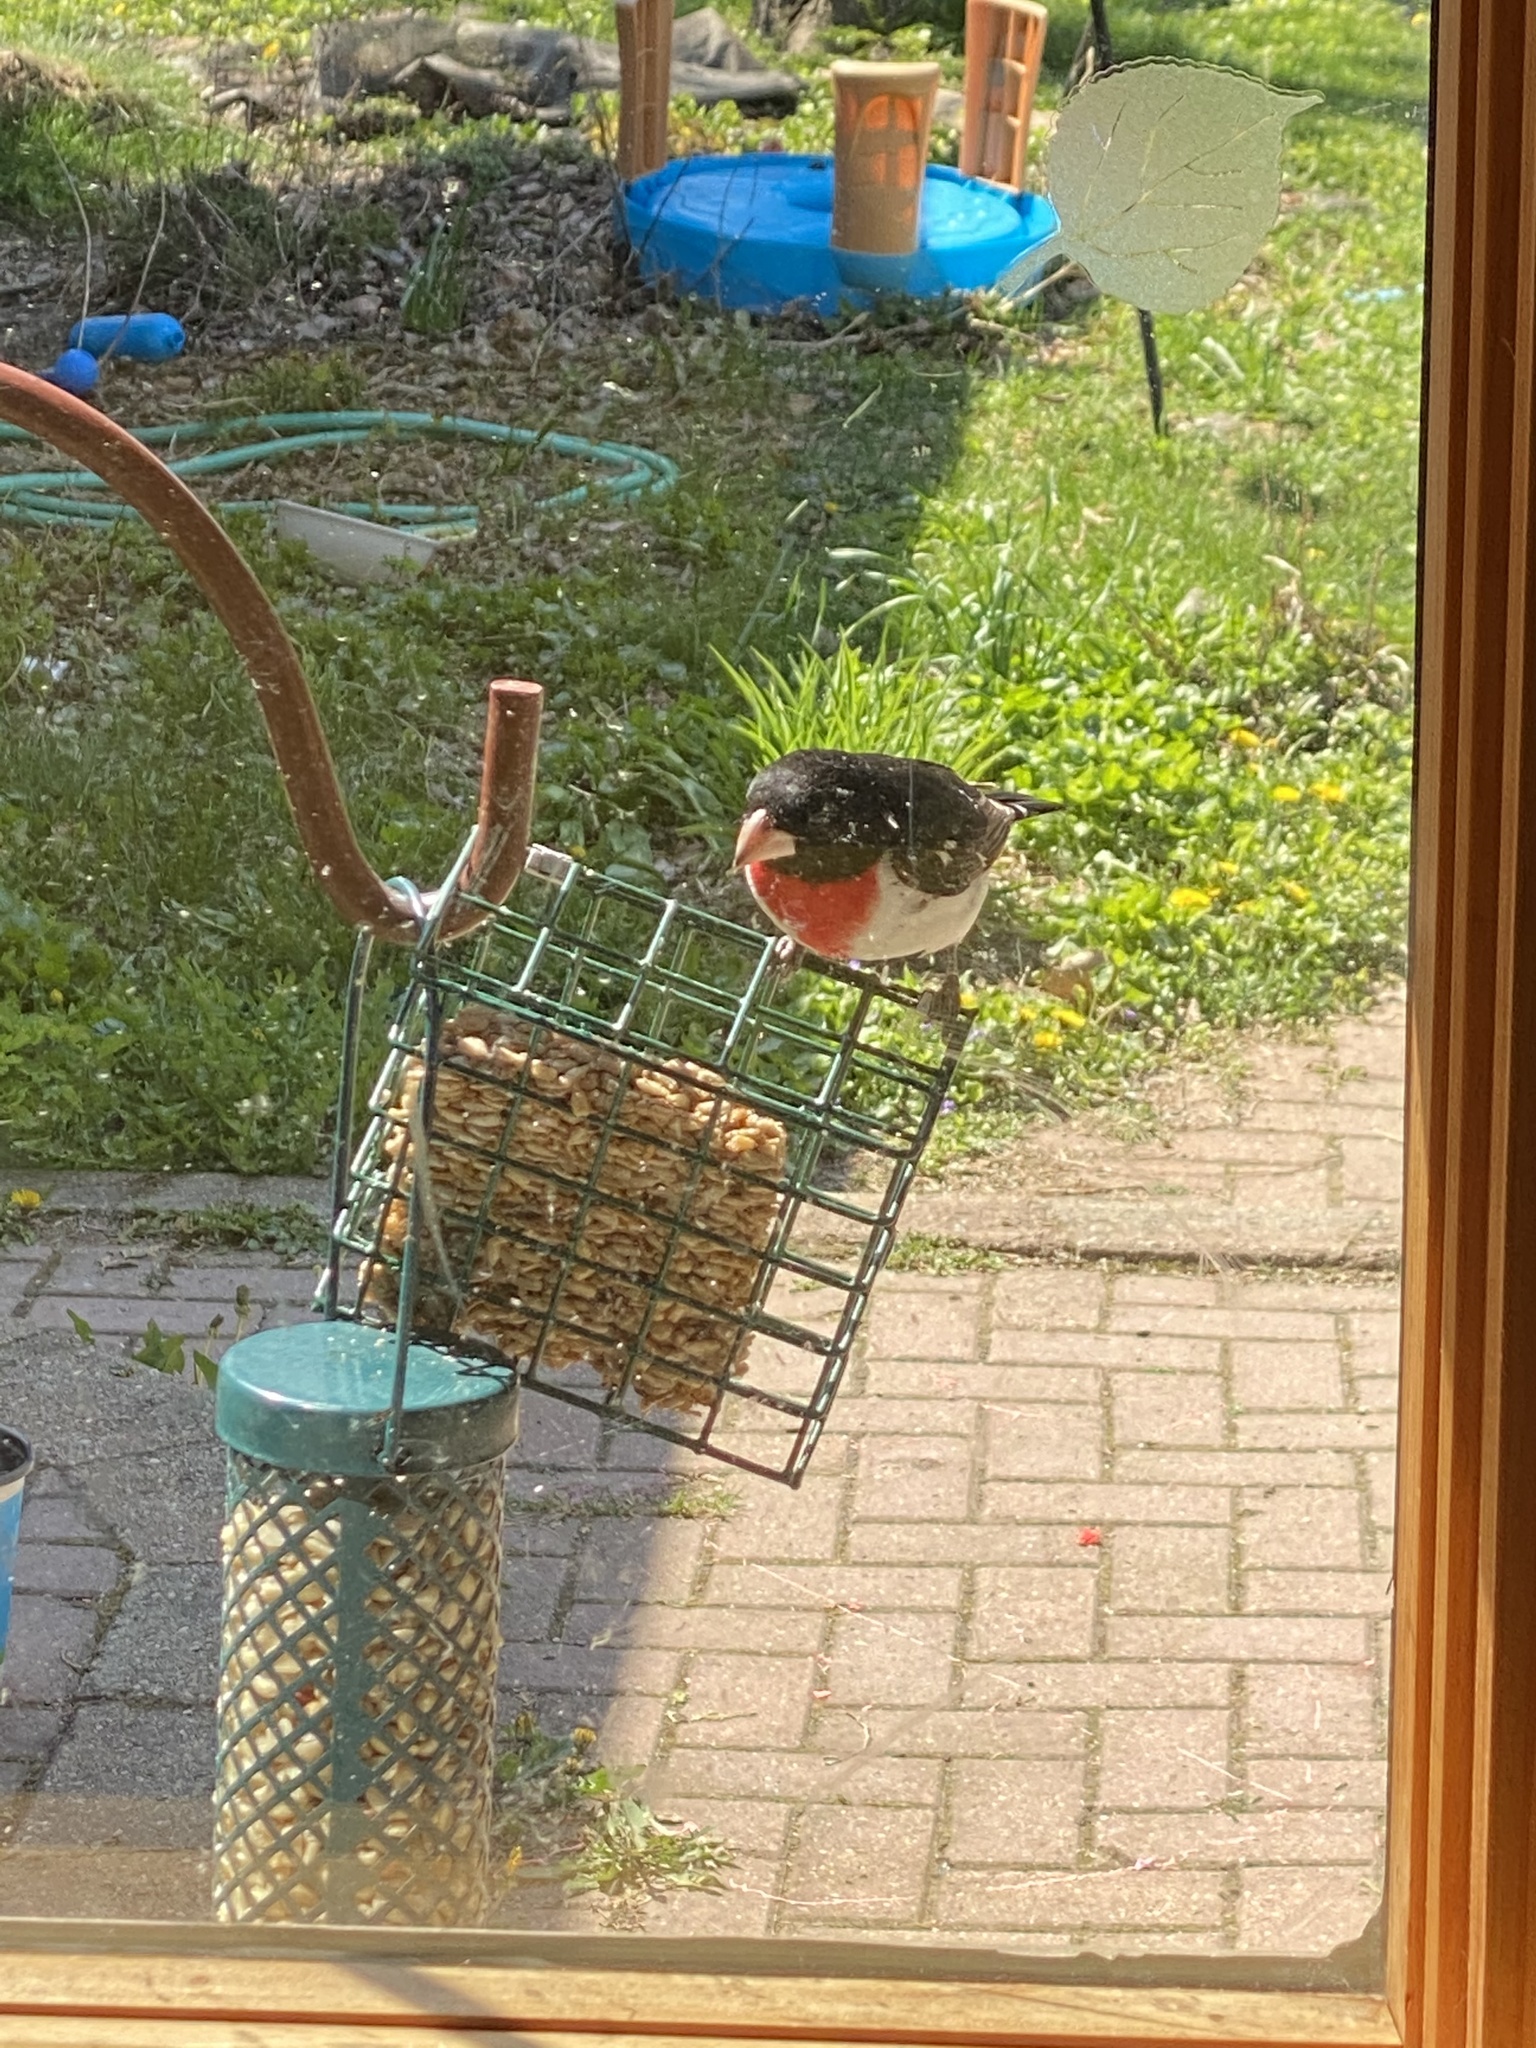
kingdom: Animalia
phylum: Chordata
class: Aves
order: Passeriformes
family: Cardinalidae
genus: Pheucticus
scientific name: Pheucticus ludovicianus
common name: Rose-breasted grosbeak
